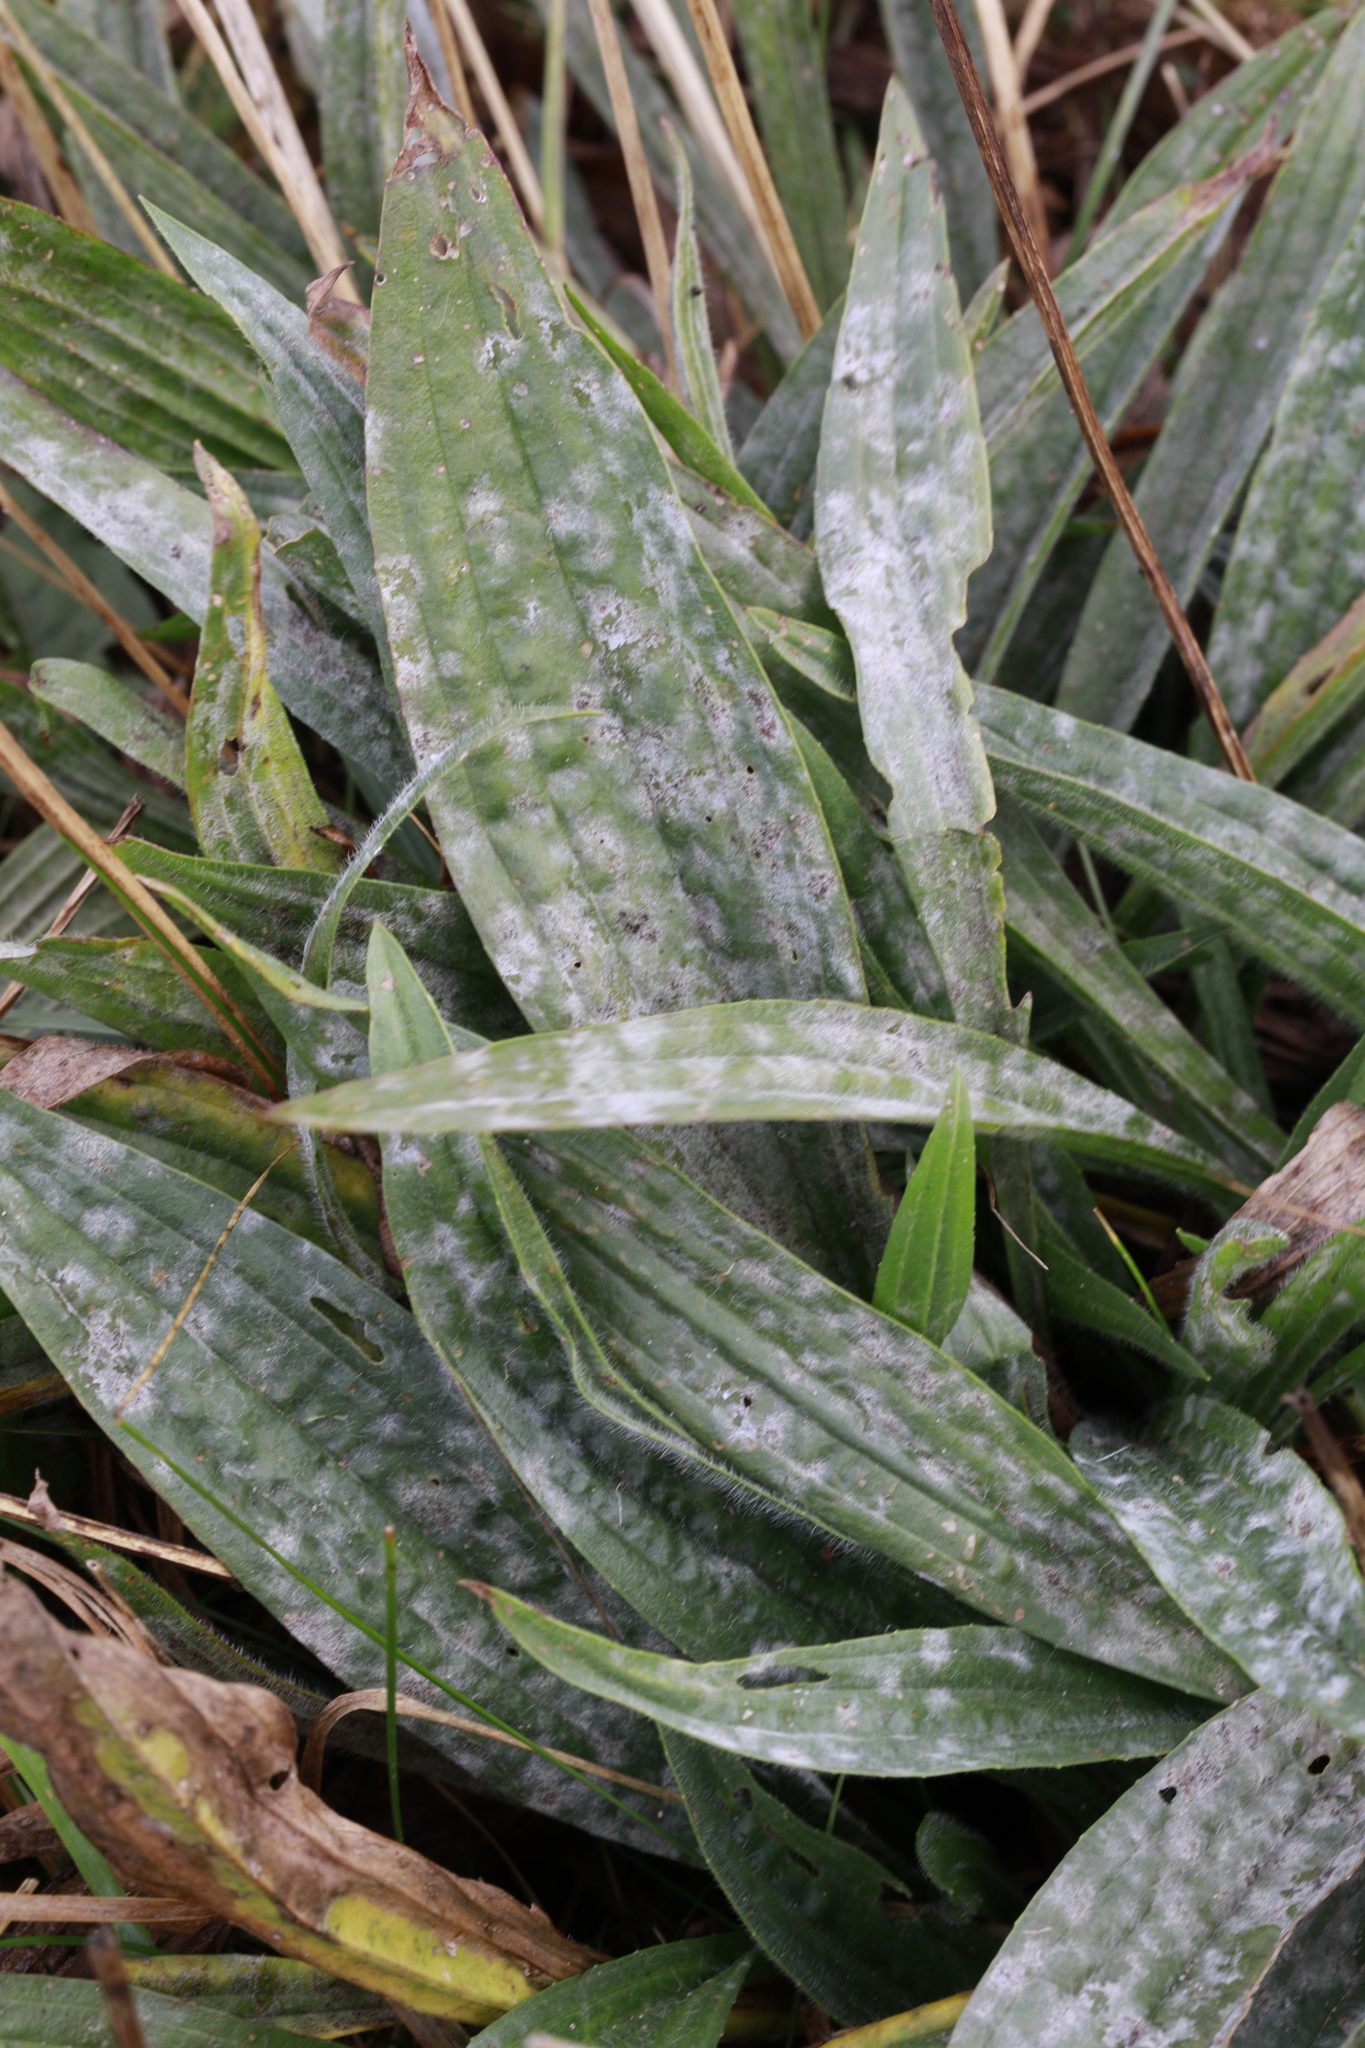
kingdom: Fungi
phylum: Ascomycota
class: Leotiomycetes
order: Helotiales
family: Erysiphaceae
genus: Golovinomyces
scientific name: Golovinomyces sordidus
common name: Plantain mildew
